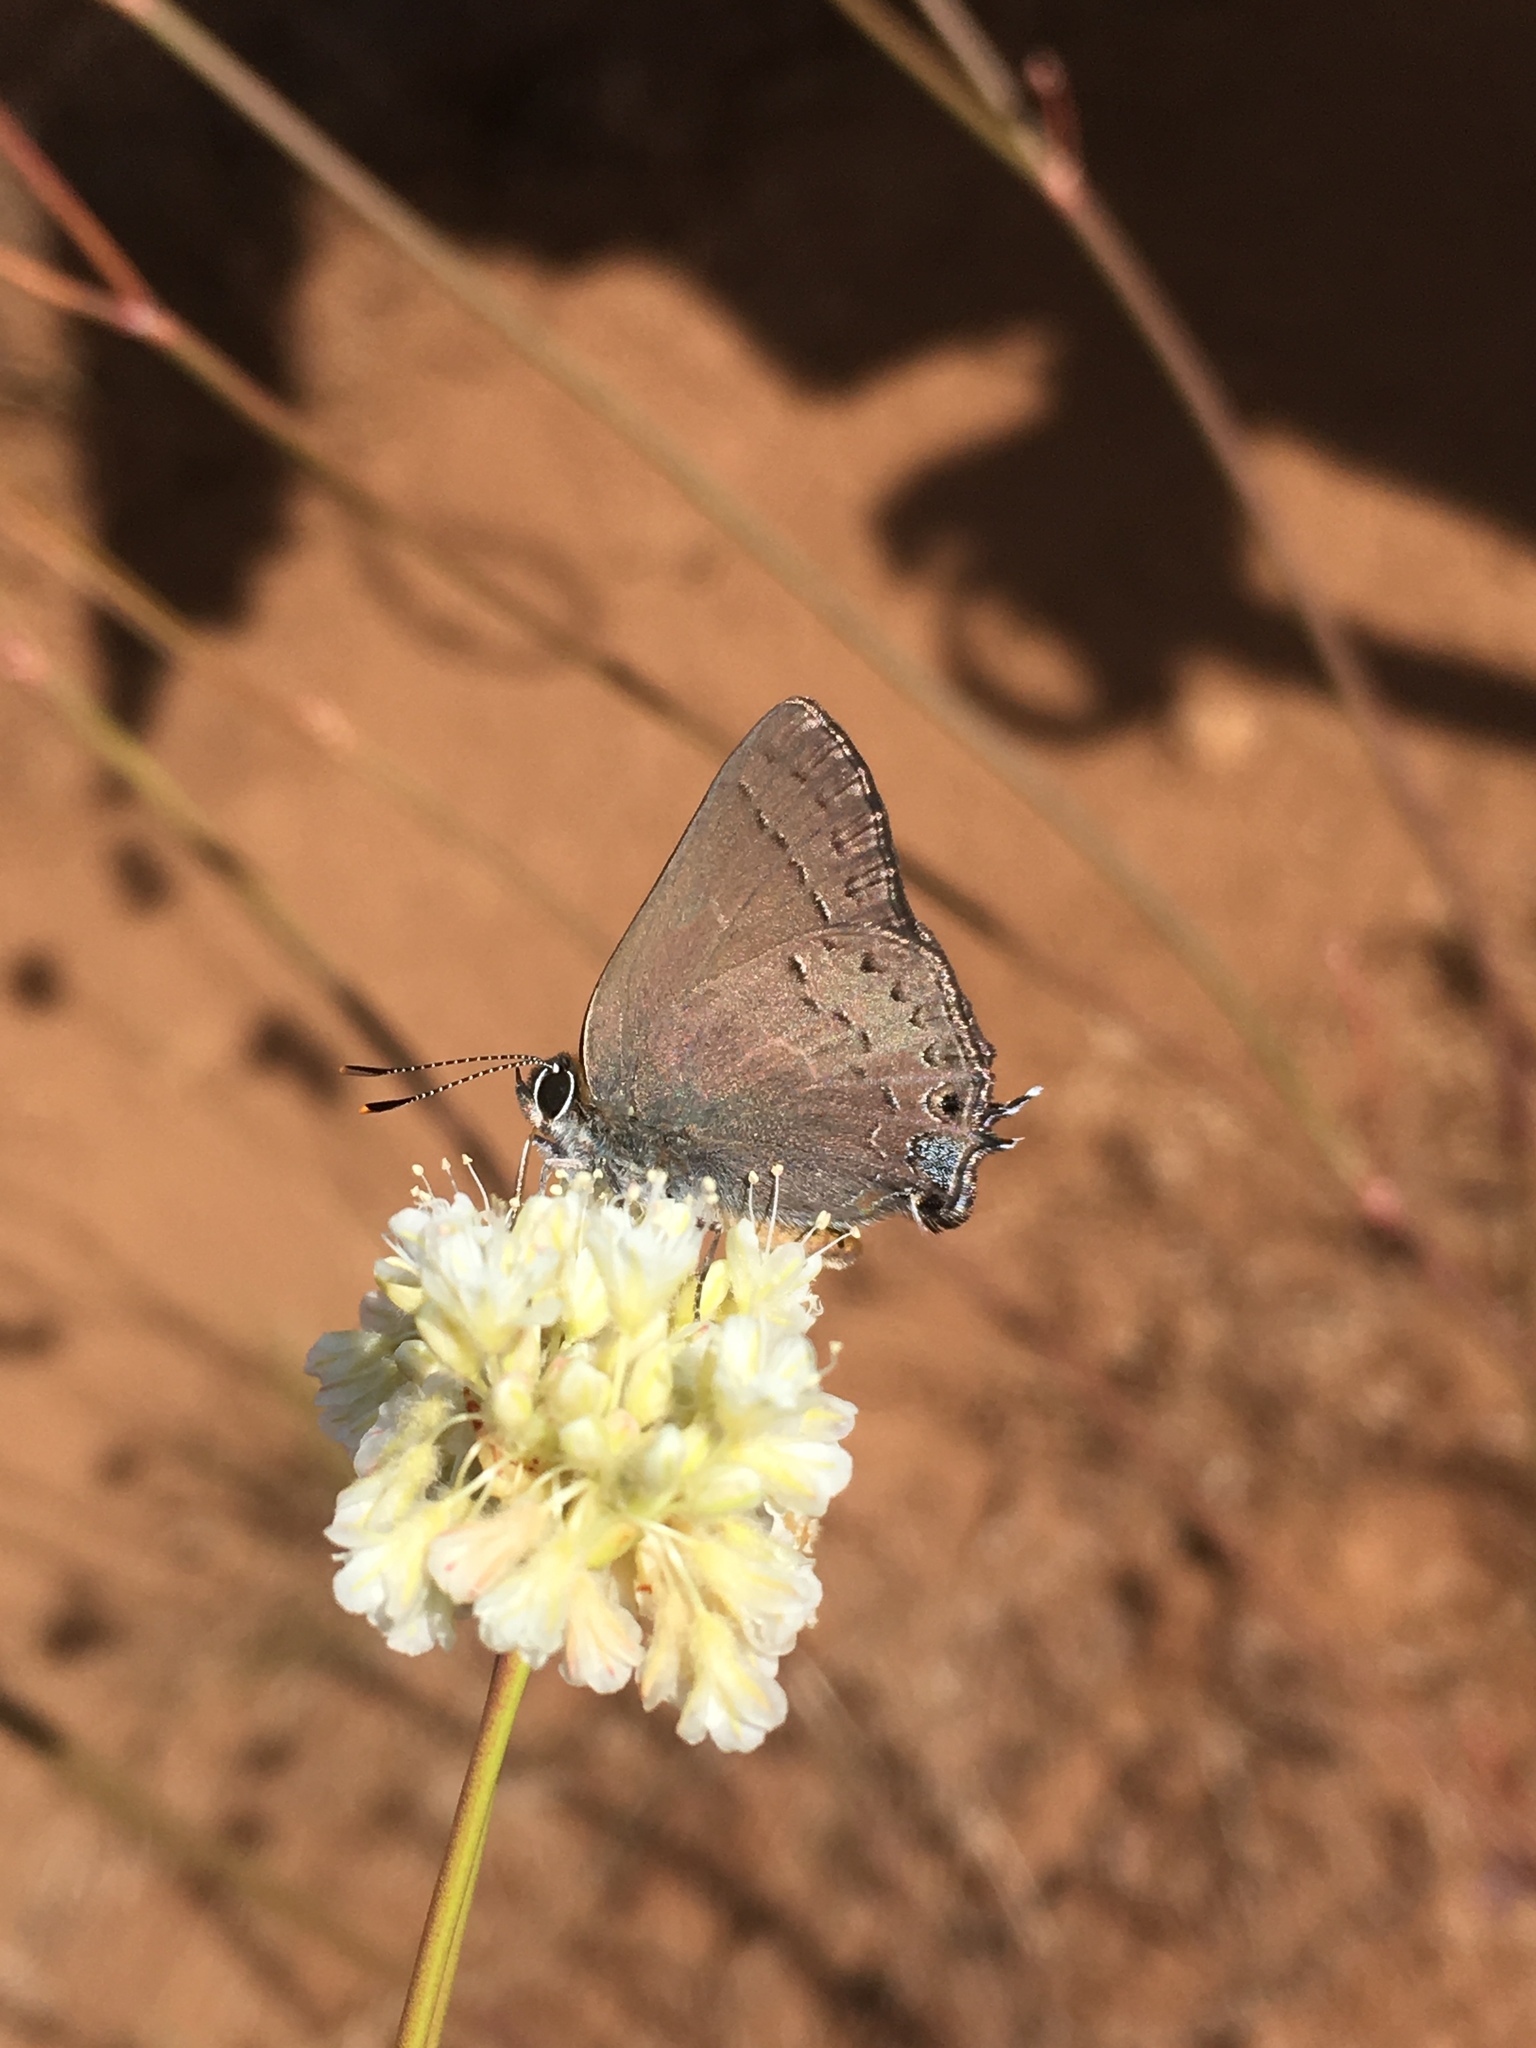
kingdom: Animalia
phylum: Arthropoda
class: Insecta
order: Lepidoptera
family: Lycaenidae
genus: Strymon
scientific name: Strymon saepium
